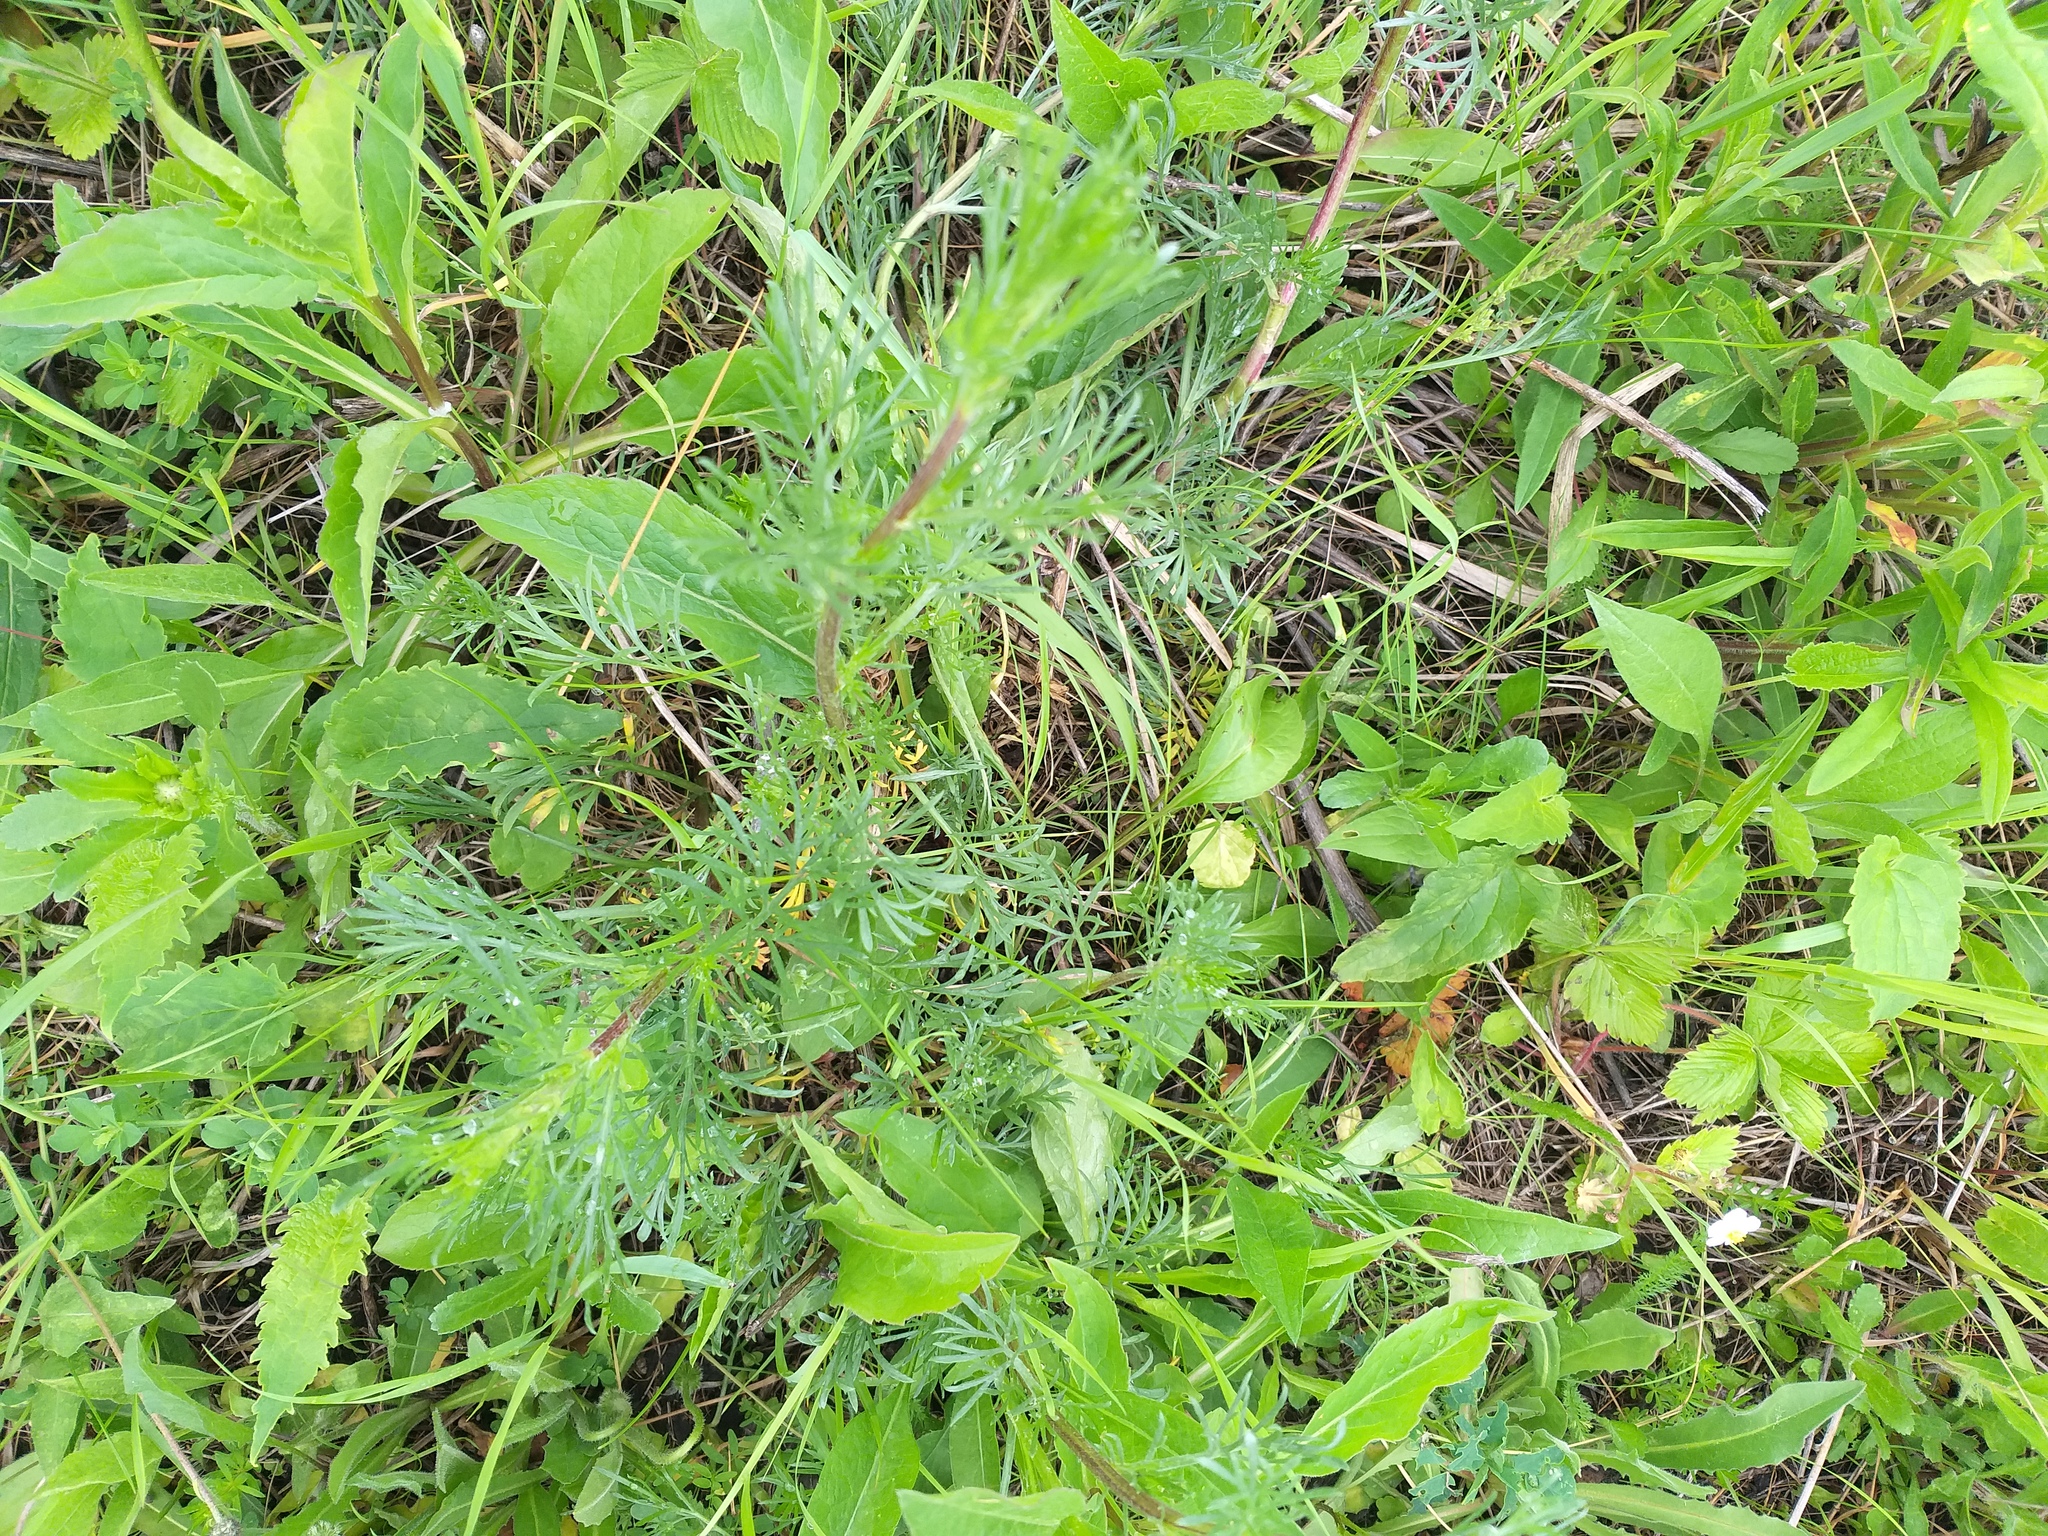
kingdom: Plantae
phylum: Tracheophyta
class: Magnoliopsida
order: Asterales
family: Asteraceae
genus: Artemisia
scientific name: Artemisia campestris
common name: Field wormwood
